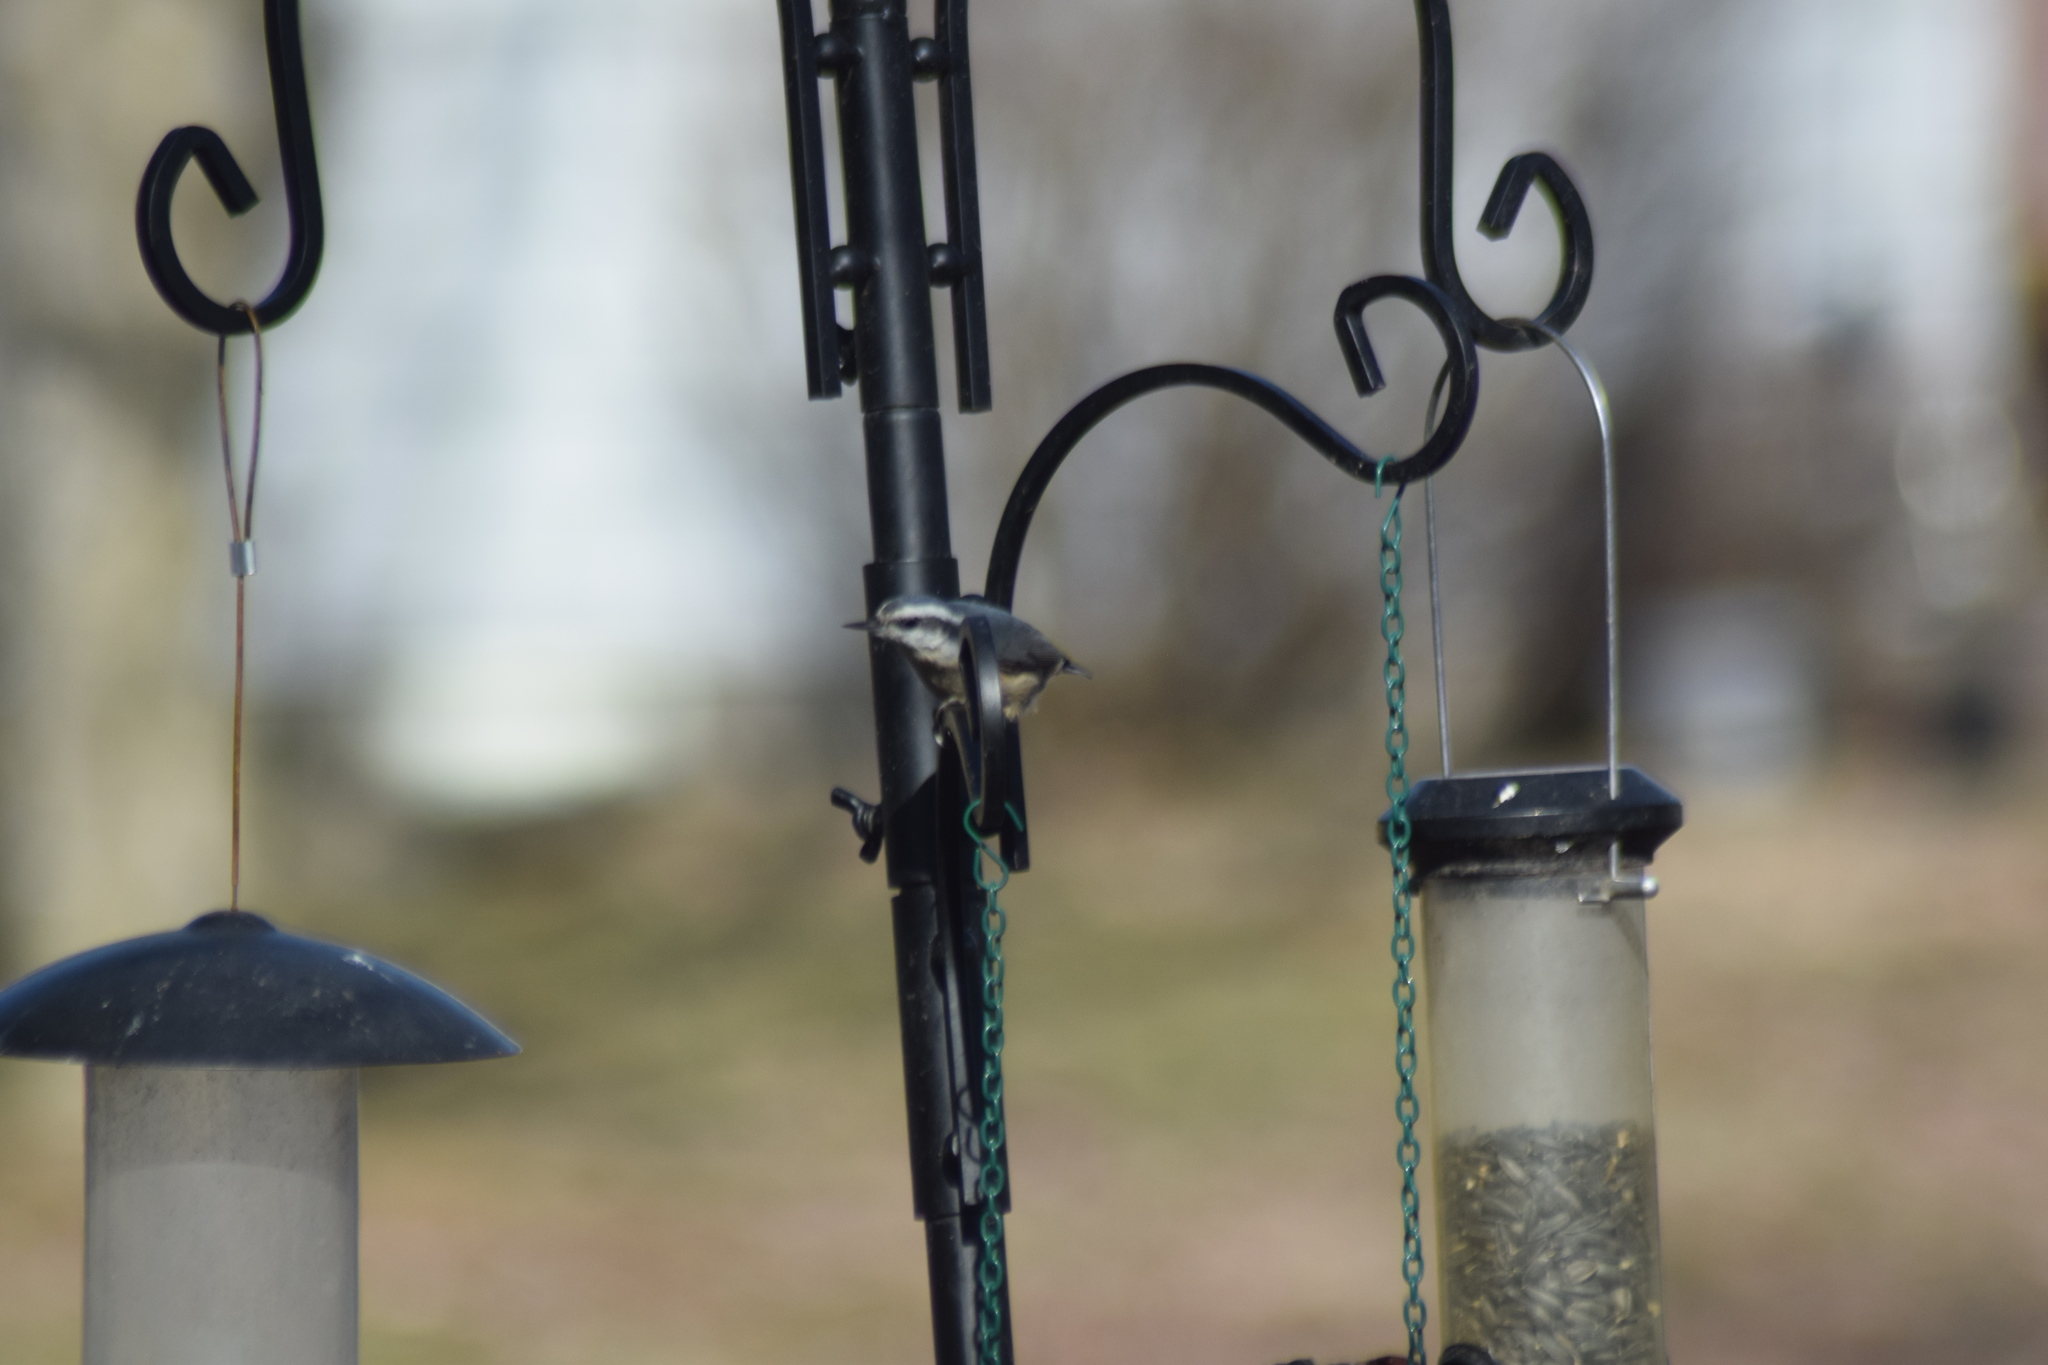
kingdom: Animalia
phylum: Chordata
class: Aves
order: Passeriformes
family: Sittidae
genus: Sitta
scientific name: Sitta canadensis
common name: Red-breasted nuthatch
